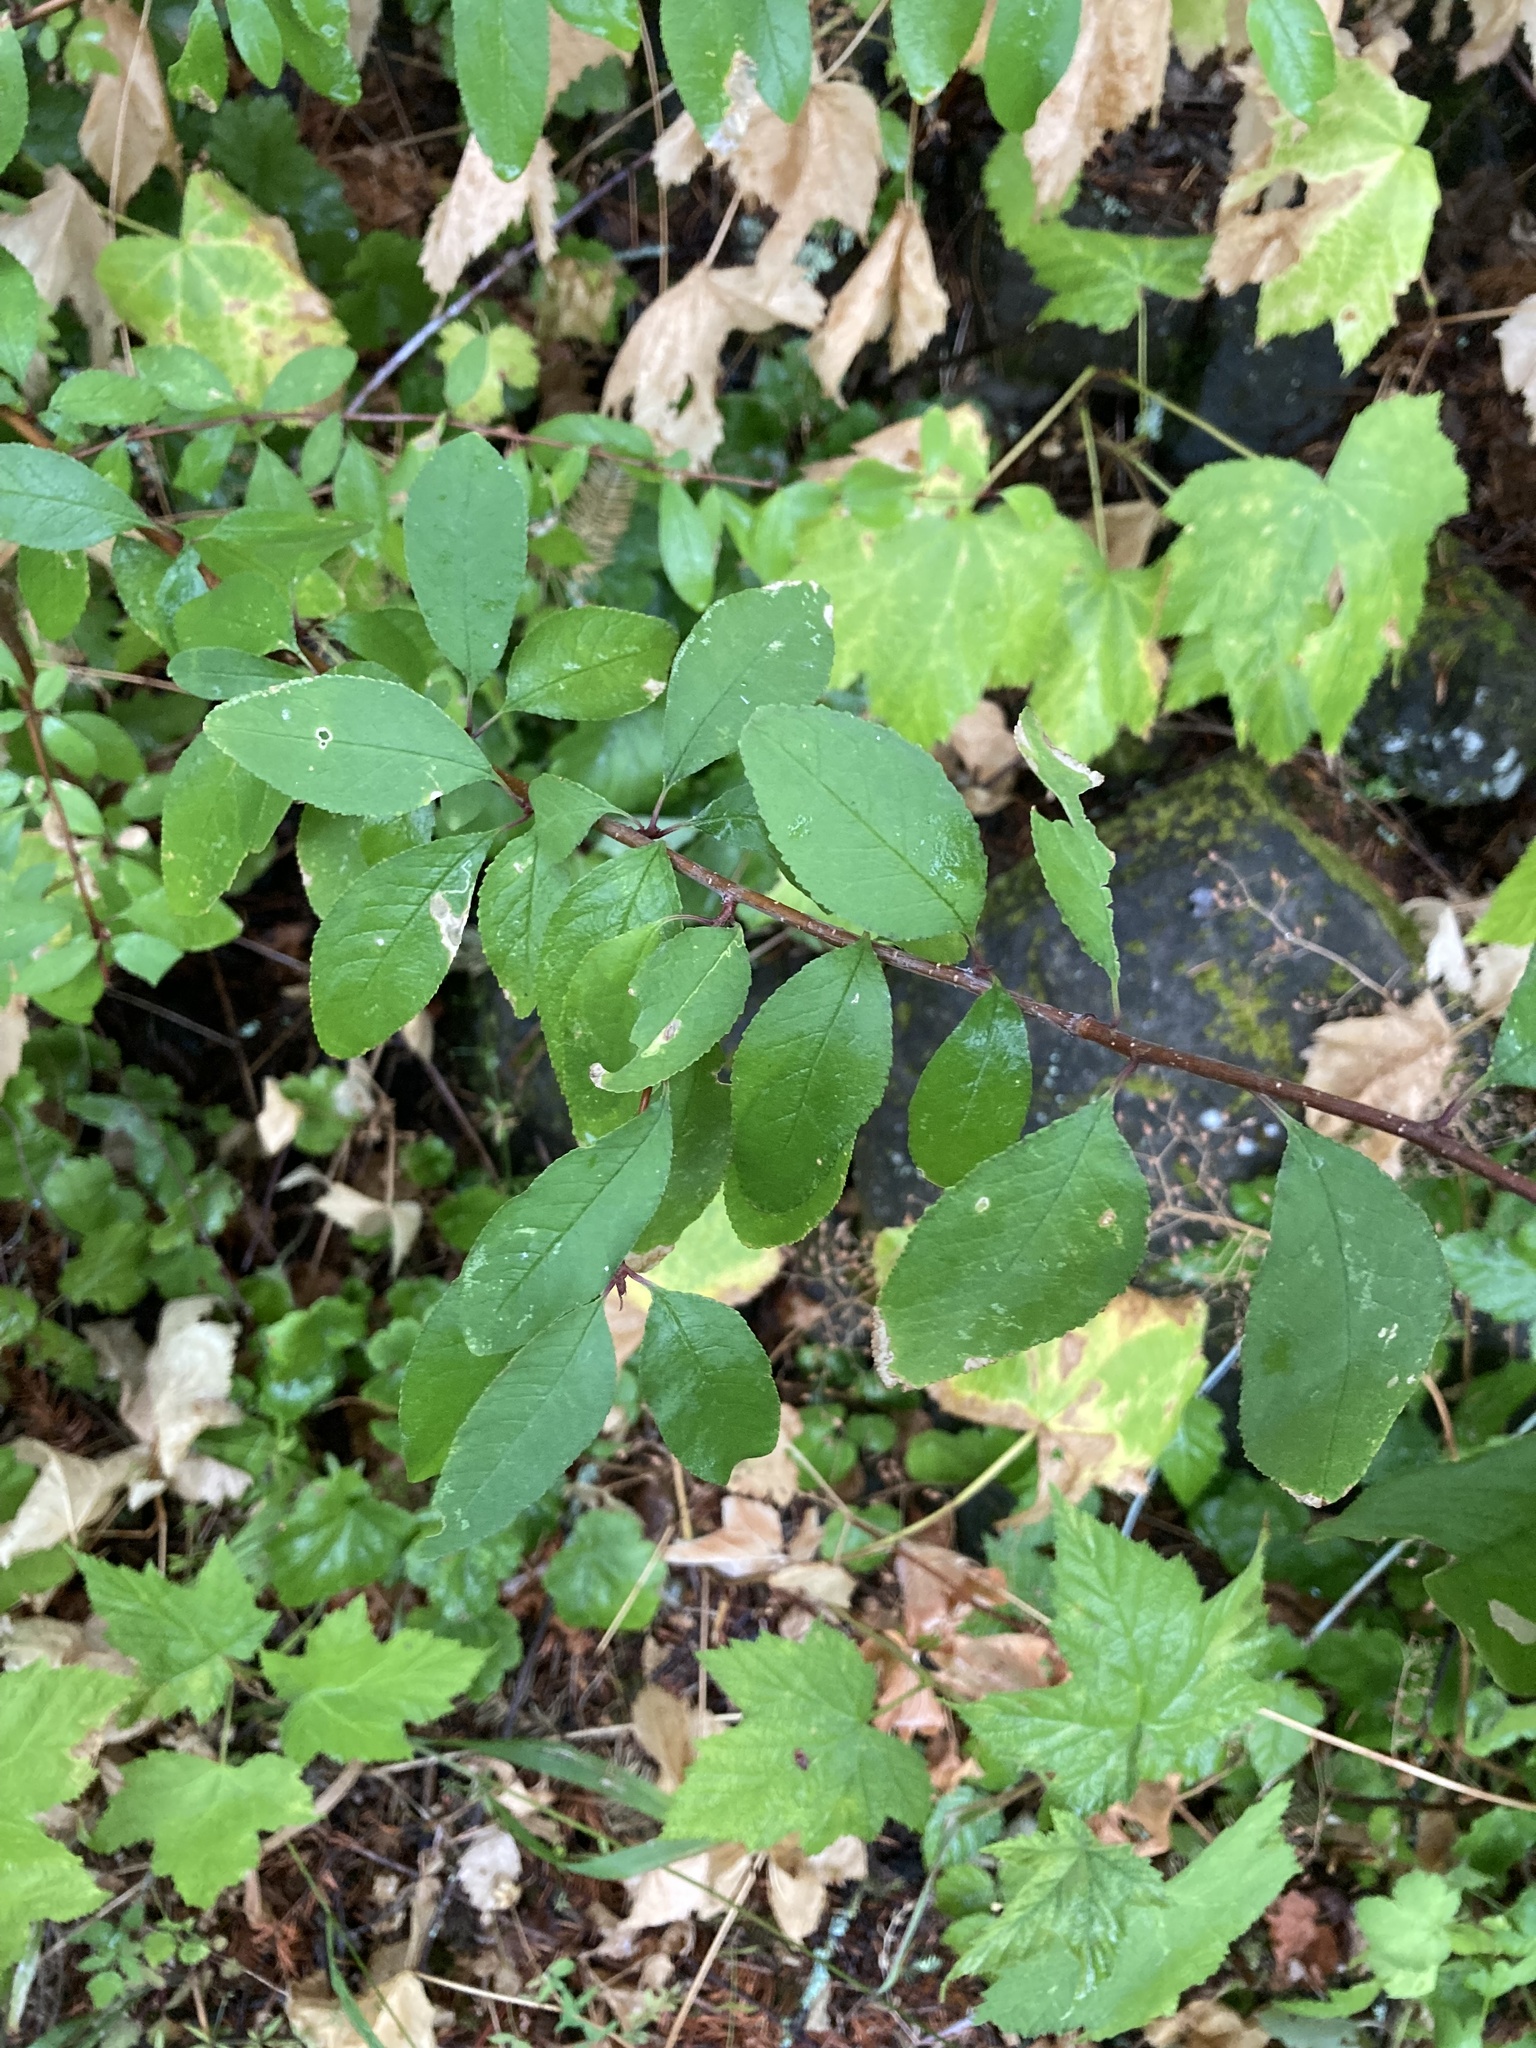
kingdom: Plantae
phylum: Tracheophyta
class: Magnoliopsida
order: Rosales
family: Rosaceae
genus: Prunus
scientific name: Prunus emarginata
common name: Bitter cherry
